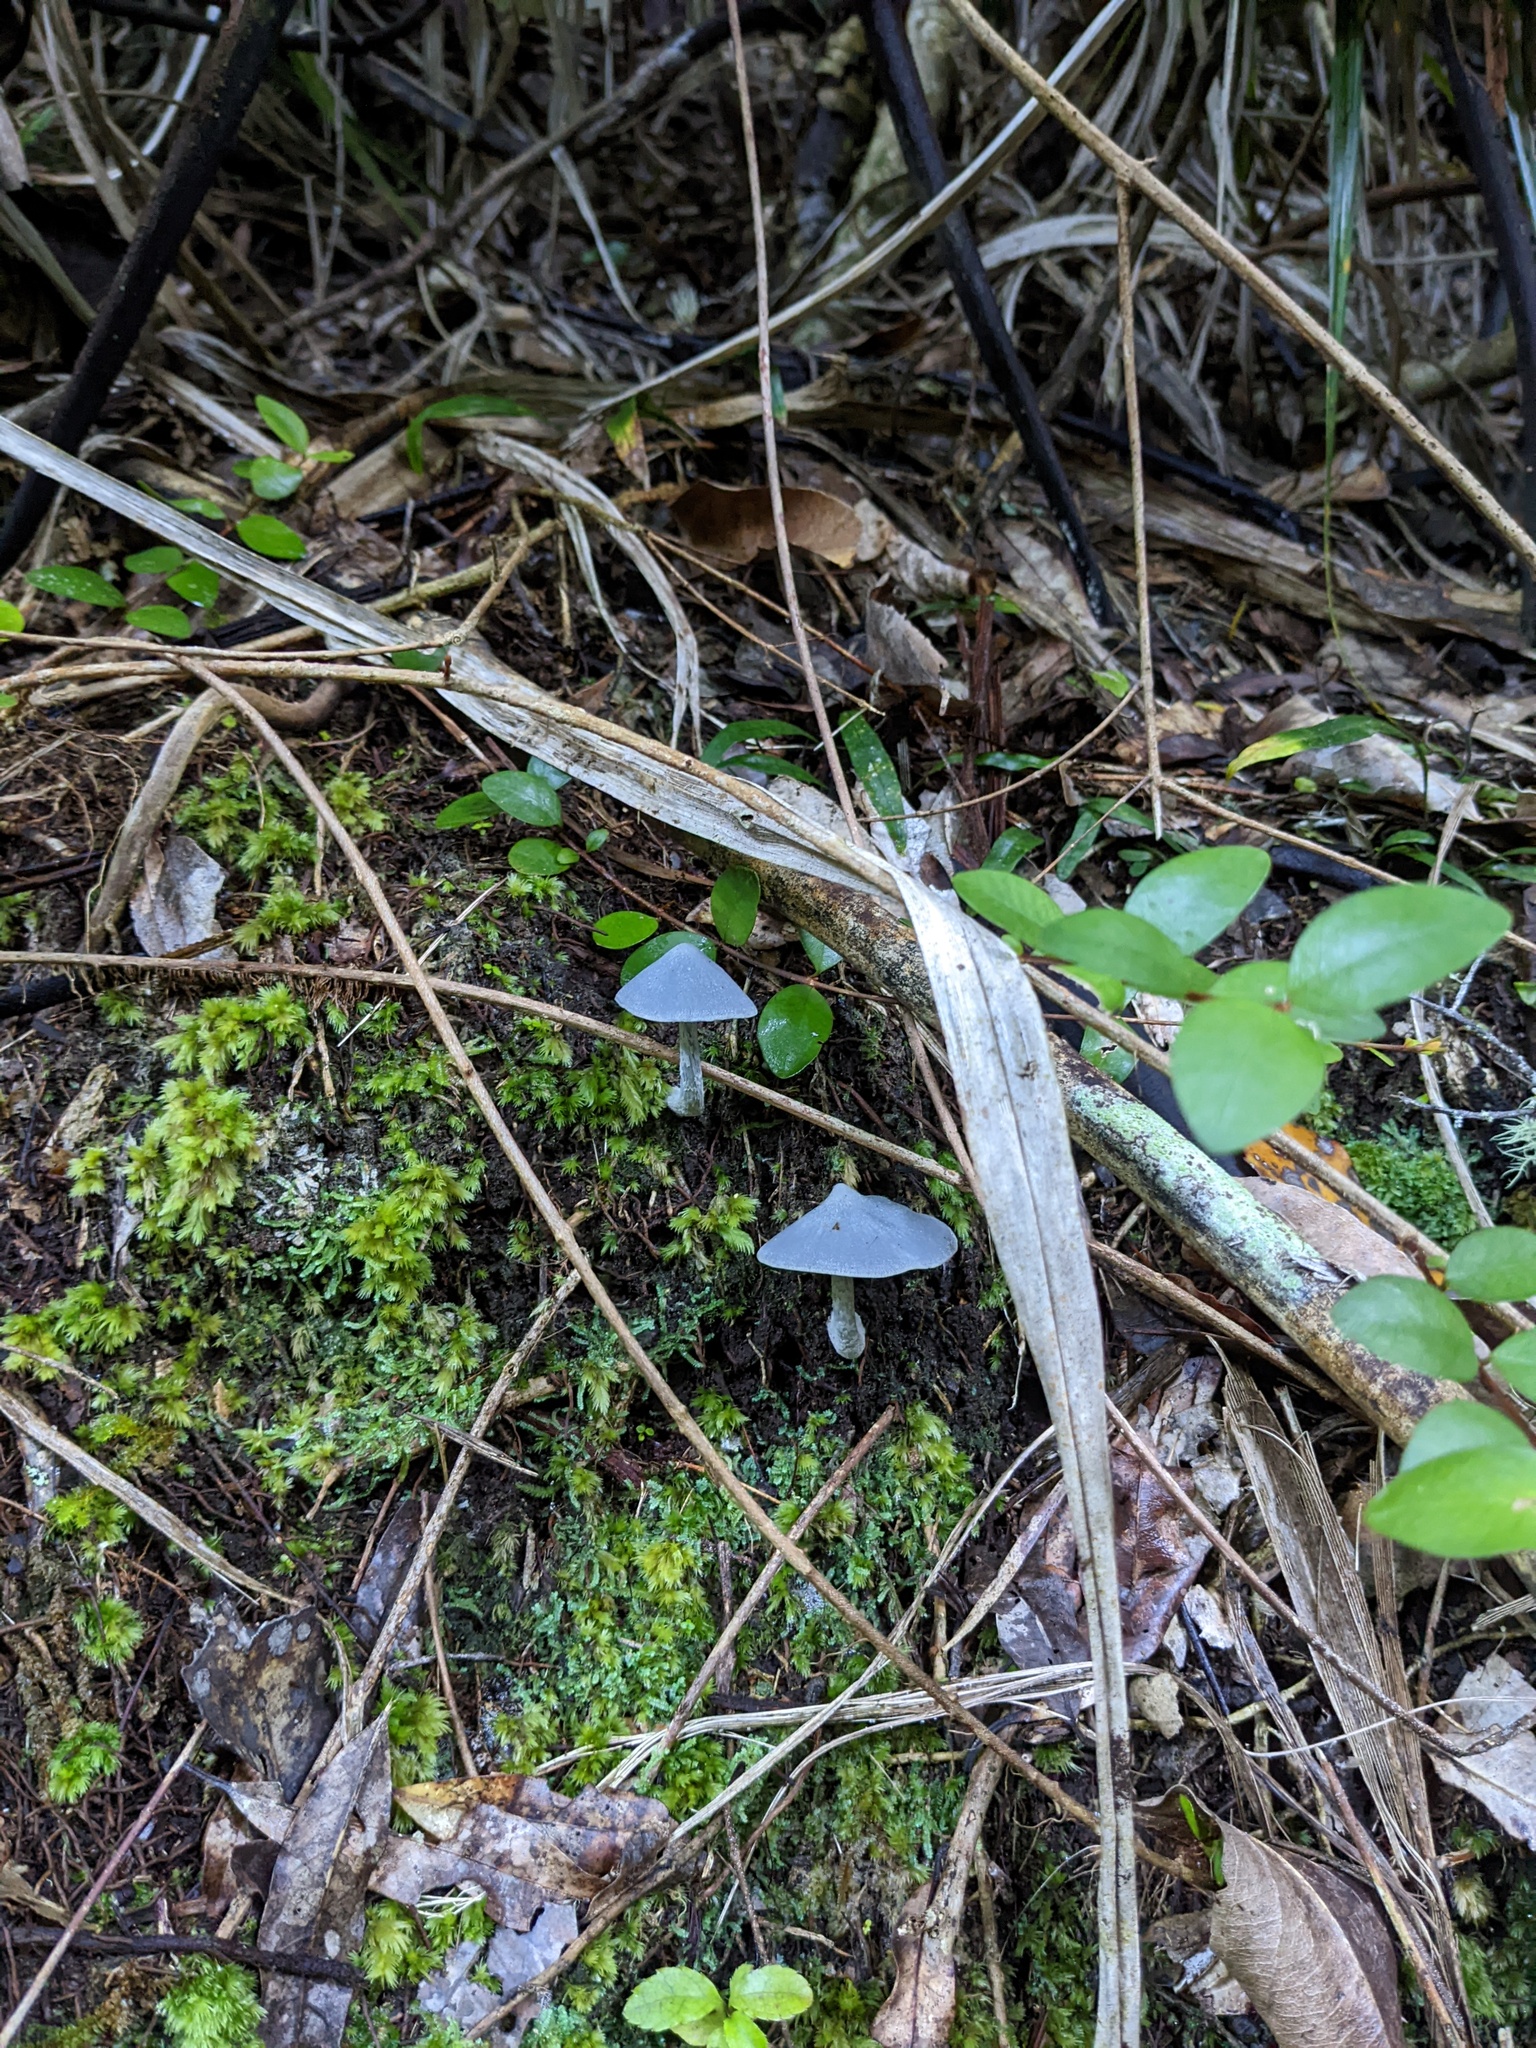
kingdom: Fungi
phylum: Basidiomycota
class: Agaricomycetes
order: Agaricales
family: Entolomataceae
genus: Entoloma
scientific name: Entoloma hochstetteri
